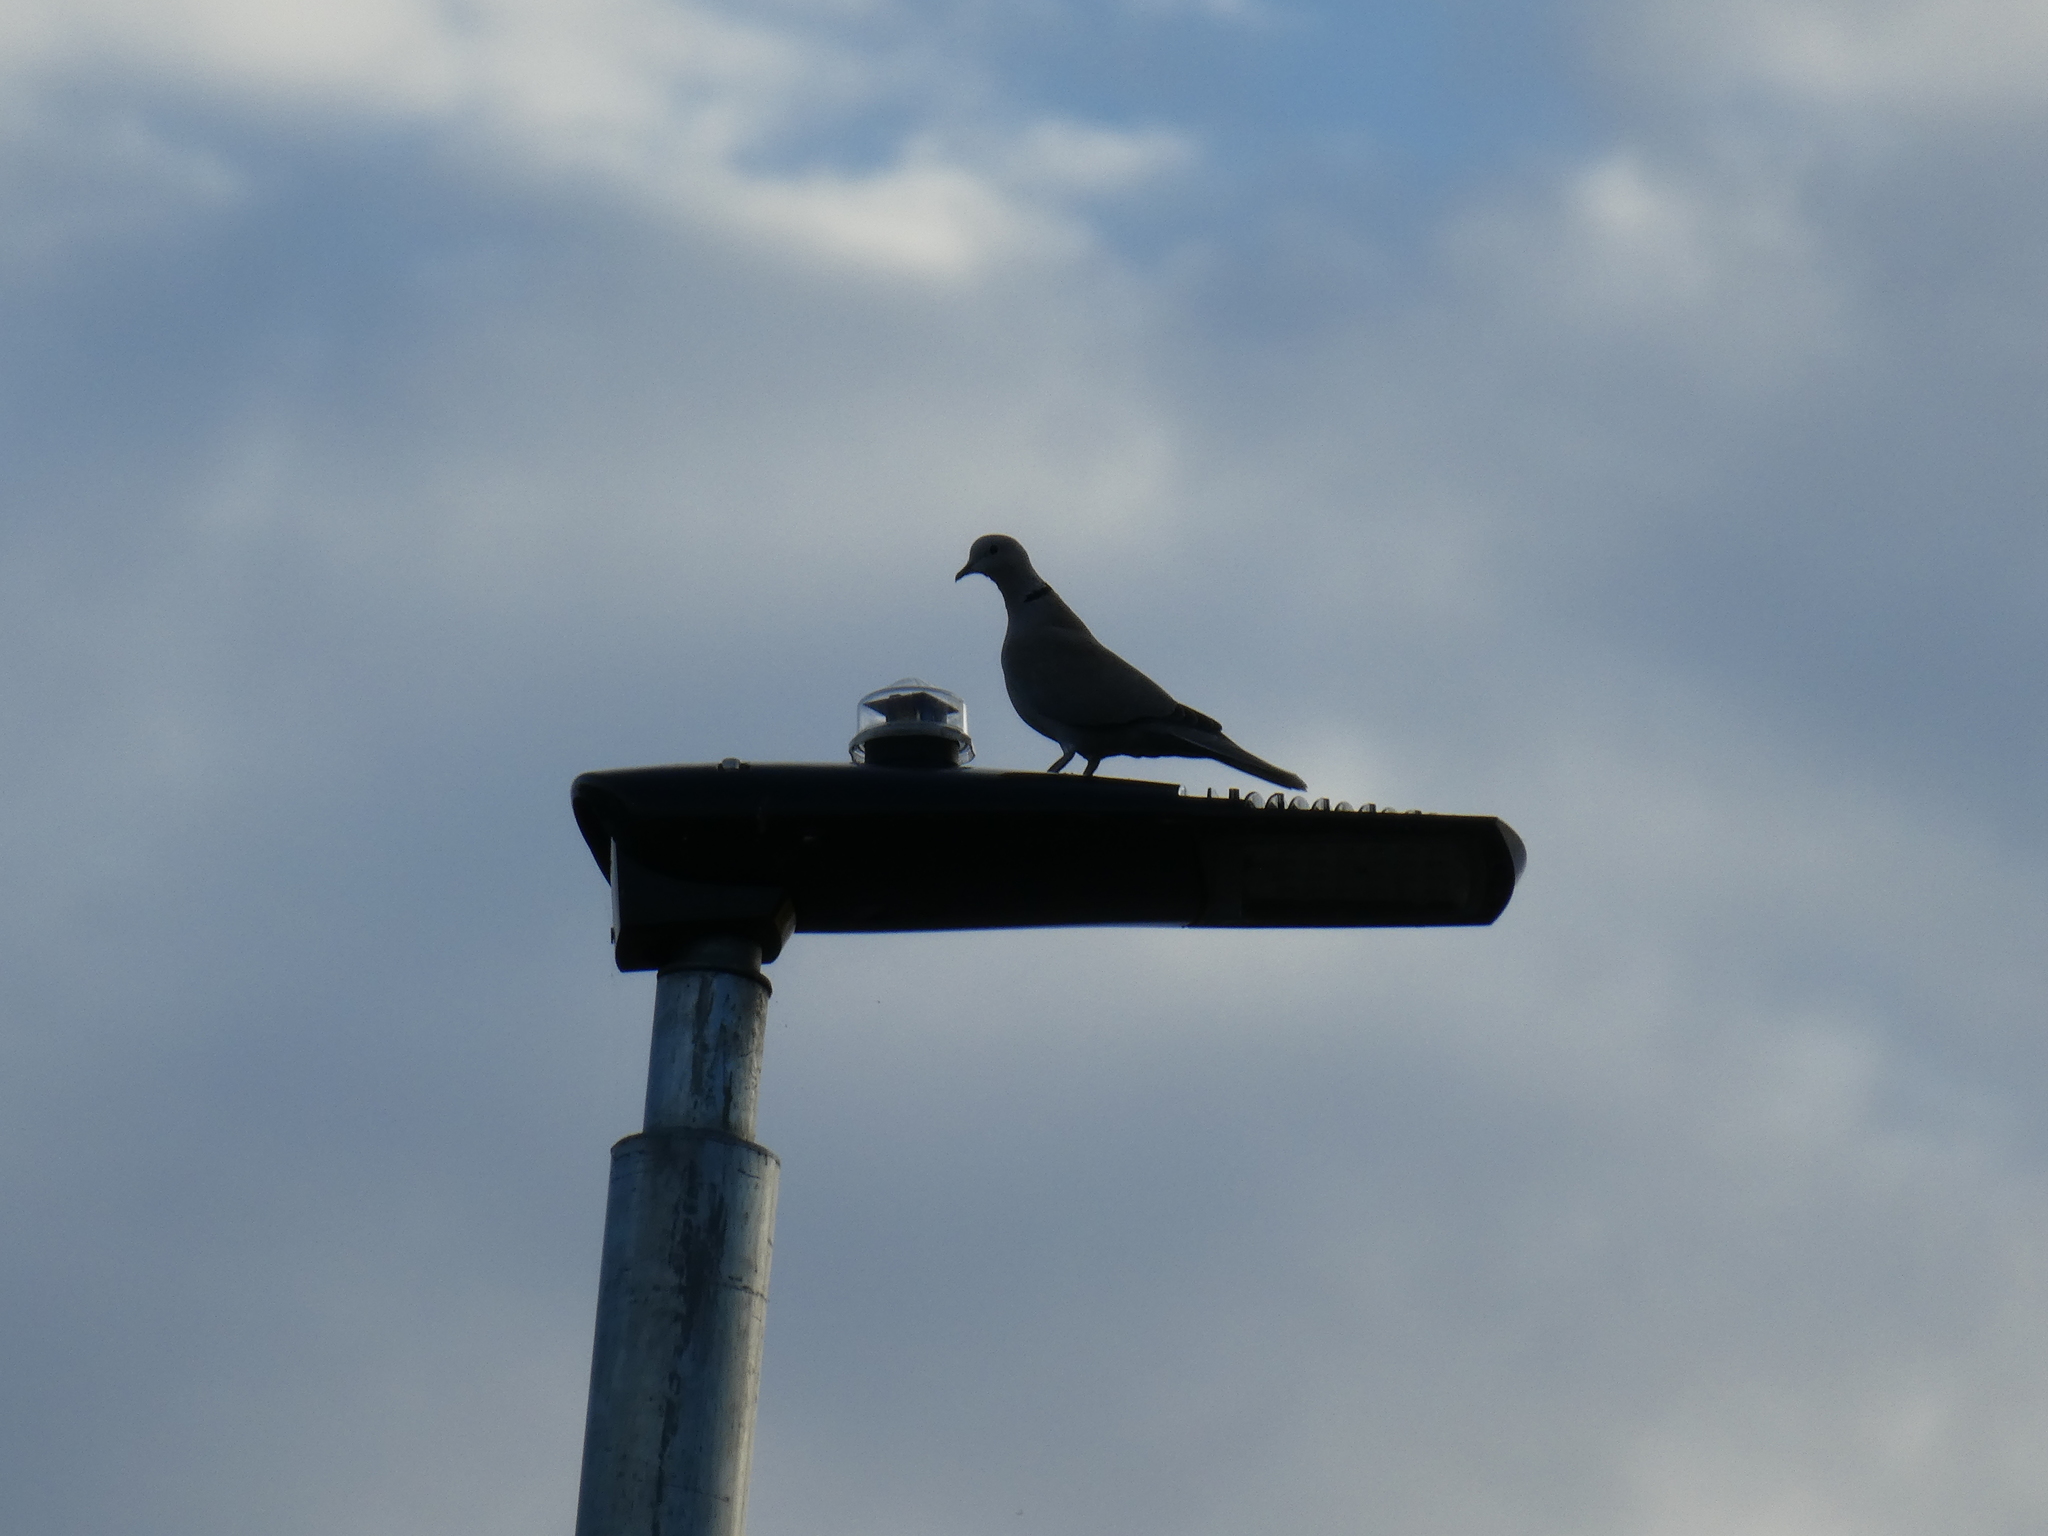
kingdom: Animalia
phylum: Chordata
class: Aves
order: Columbiformes
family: Columbidae
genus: Streptopelia
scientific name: Streptopelia decaocto
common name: Eurasian collared dove
